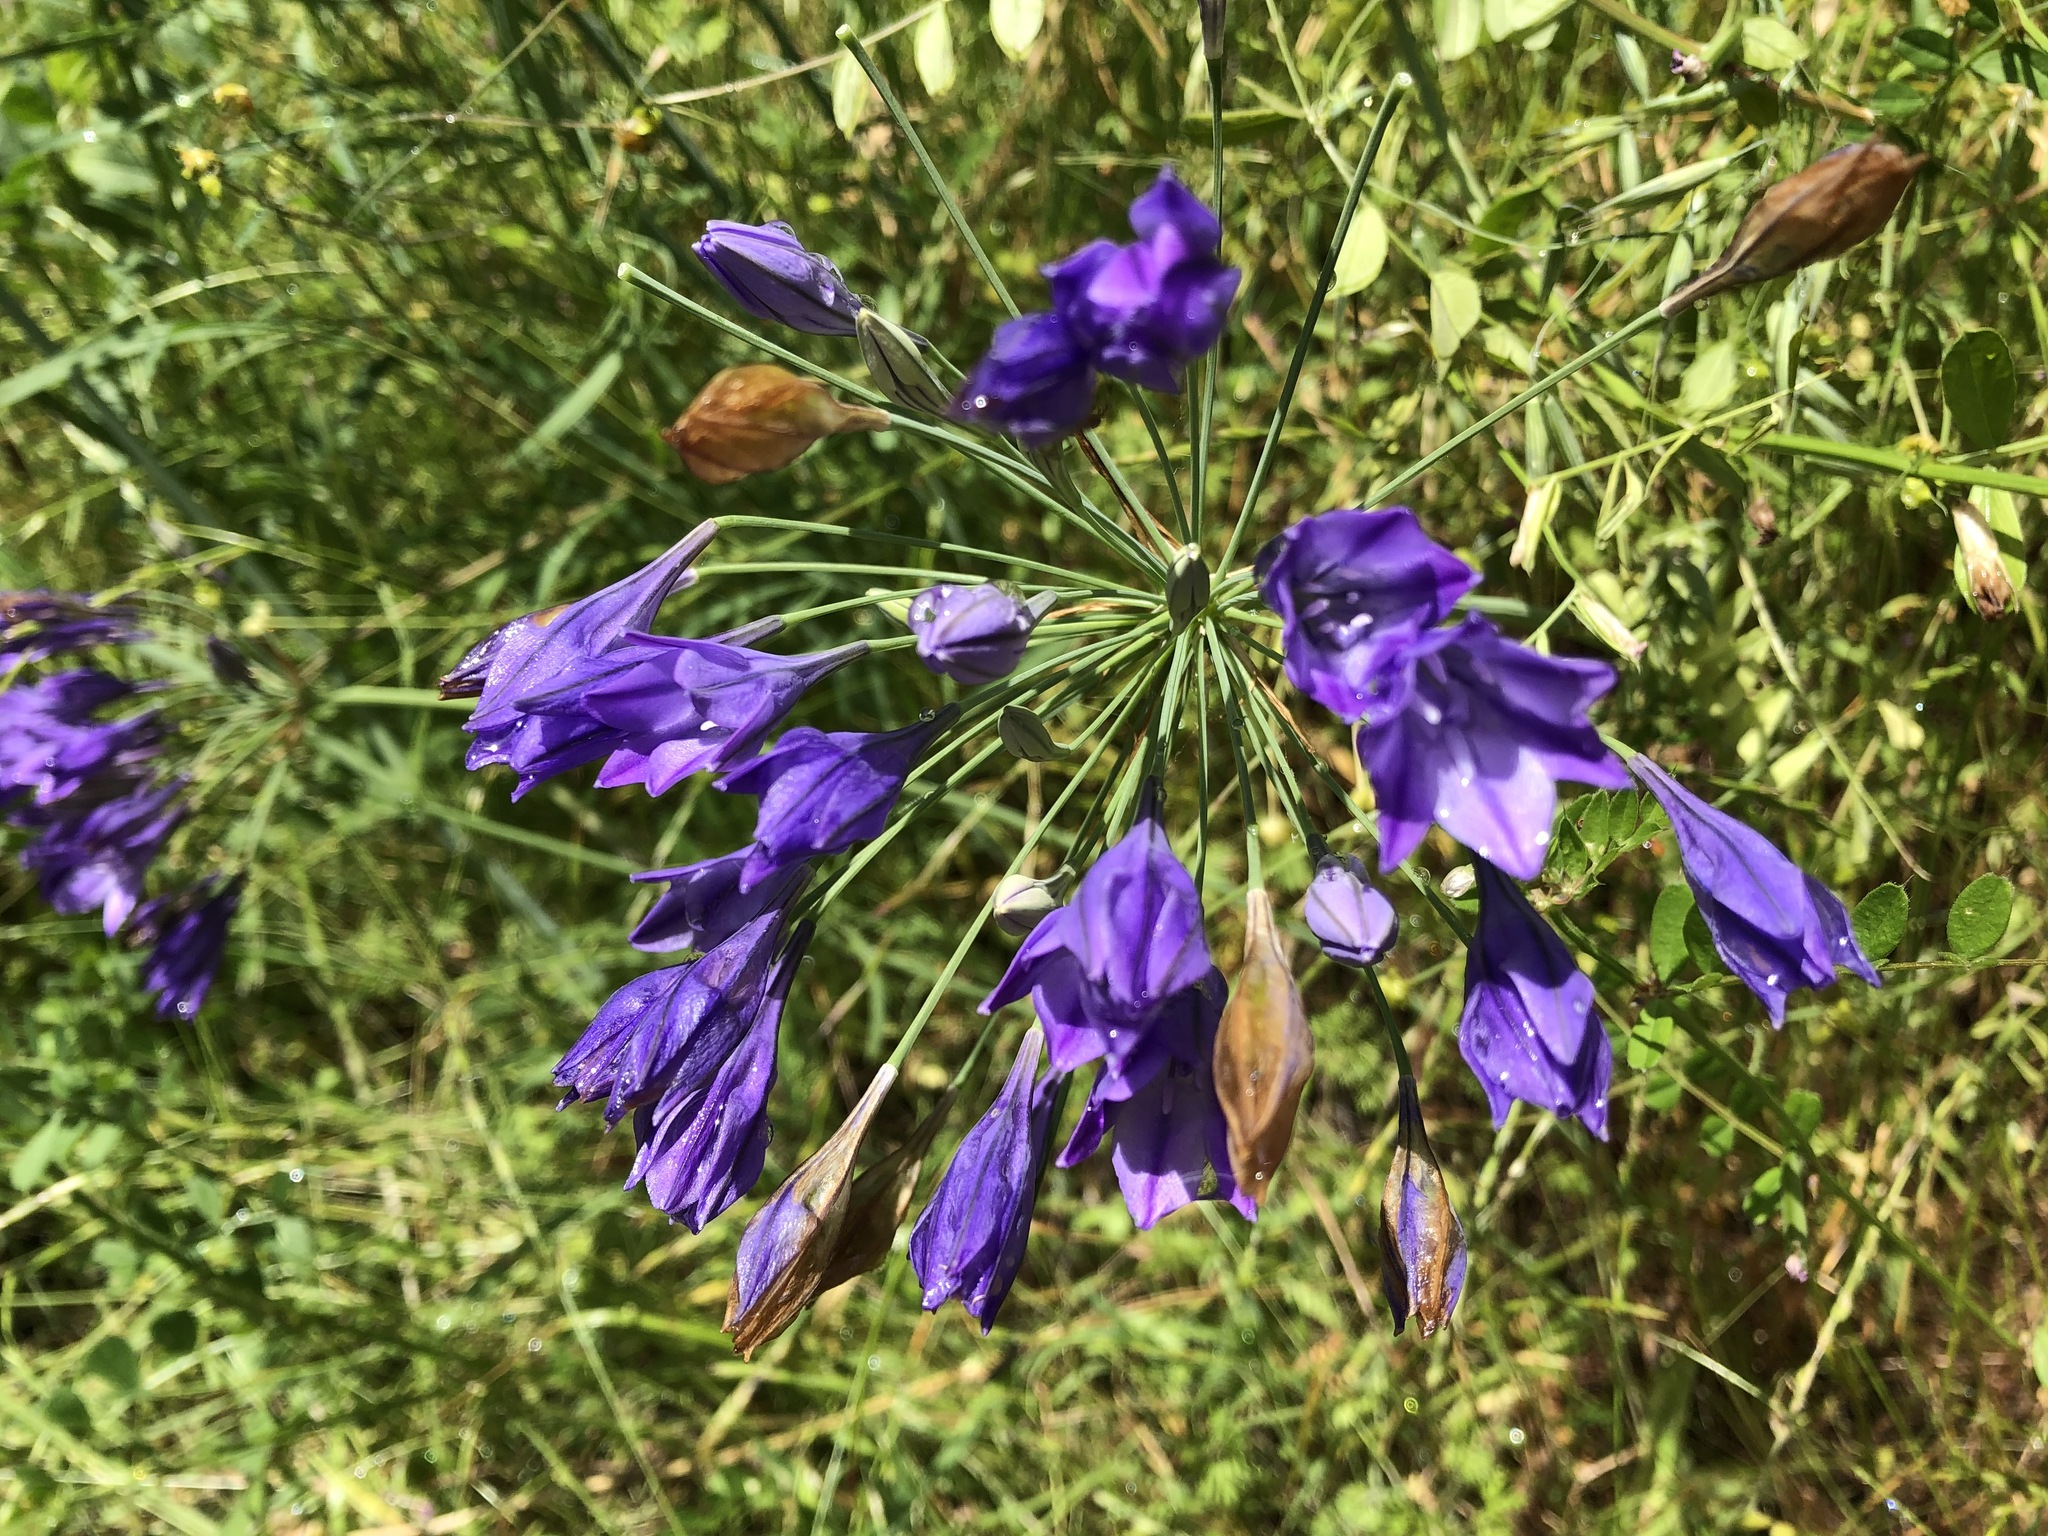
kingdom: Plantae
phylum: Tracheophyta
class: Liliopsida
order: Asparagales
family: Asparagaceae
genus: Triteleia
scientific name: Triteleia laxa
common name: Triplet-lily
